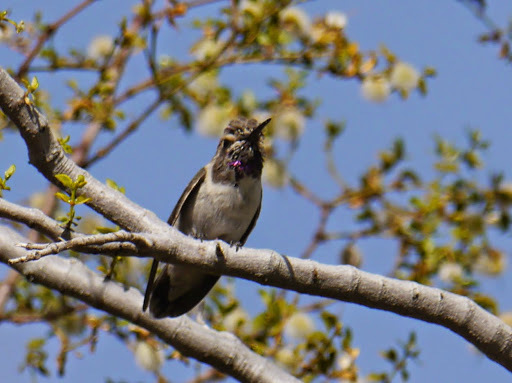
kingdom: Animalia
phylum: Chordata
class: Aves
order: Apodiformes
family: Trochilidae
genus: Calypte
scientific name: Calypte costae
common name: Costa's hummingbird
